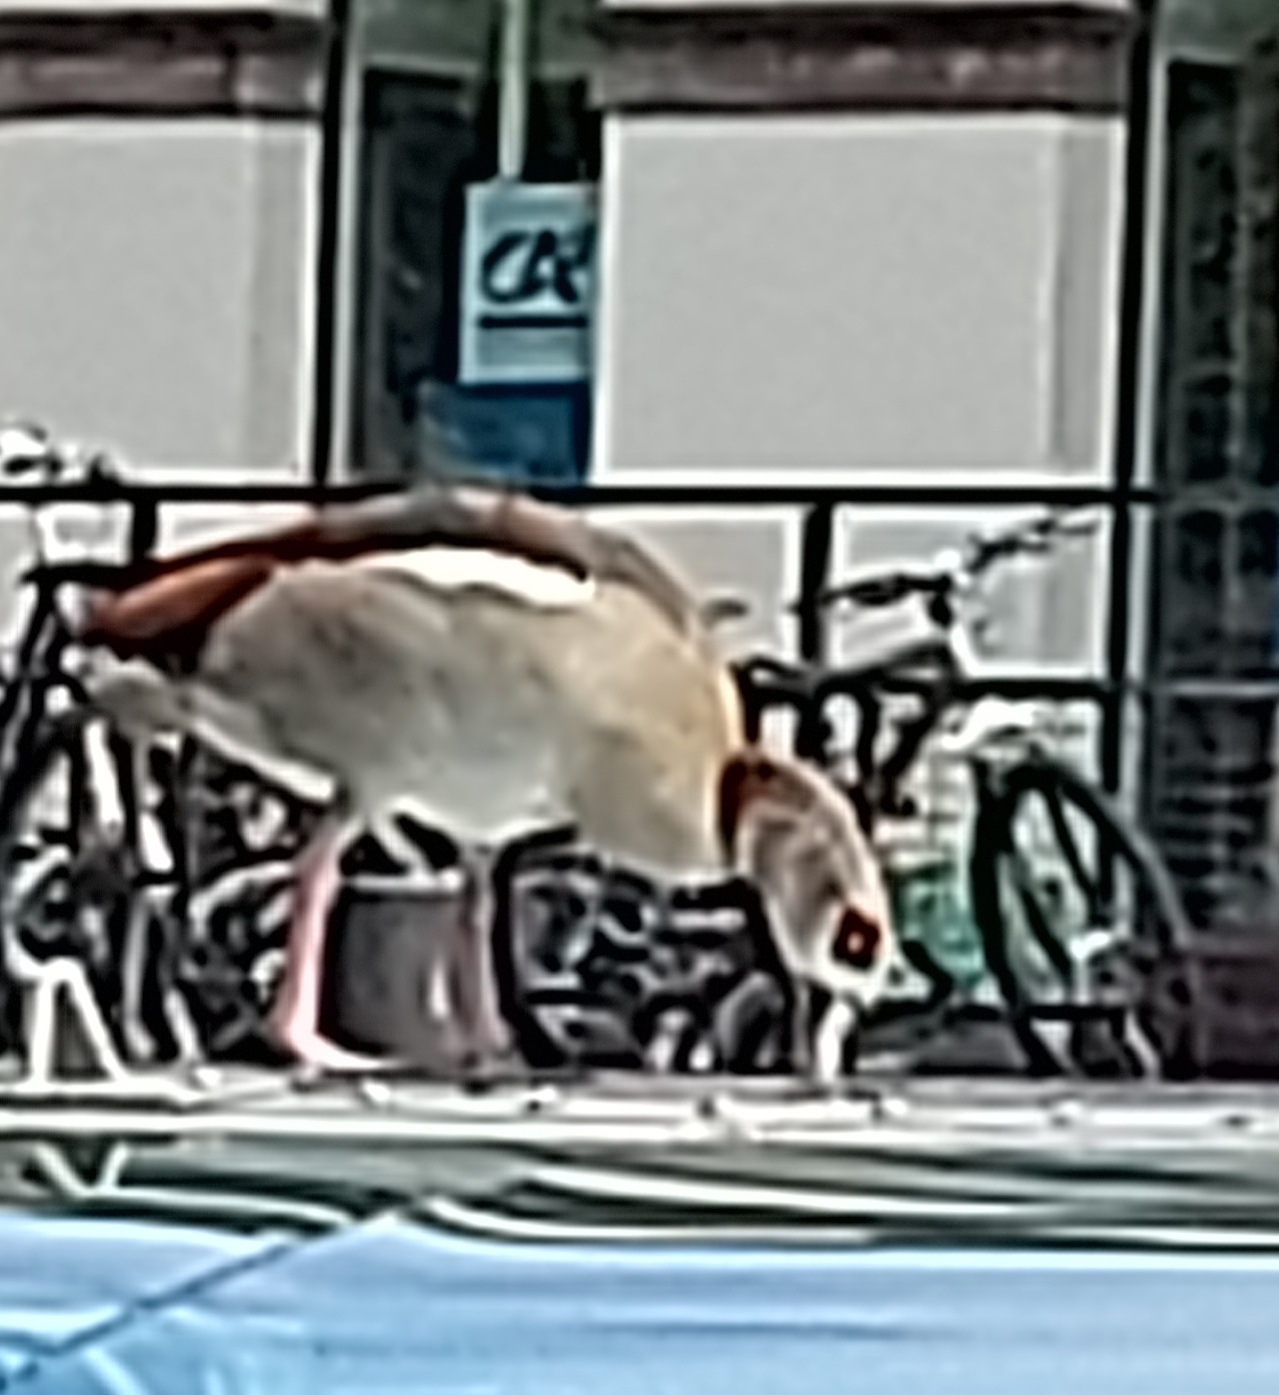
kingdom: Animalia
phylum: Chordata
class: Aves
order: Anseriformes
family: Anatidae
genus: Alopochen
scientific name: Alopochen aegyptiaca
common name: Egyptian goose
